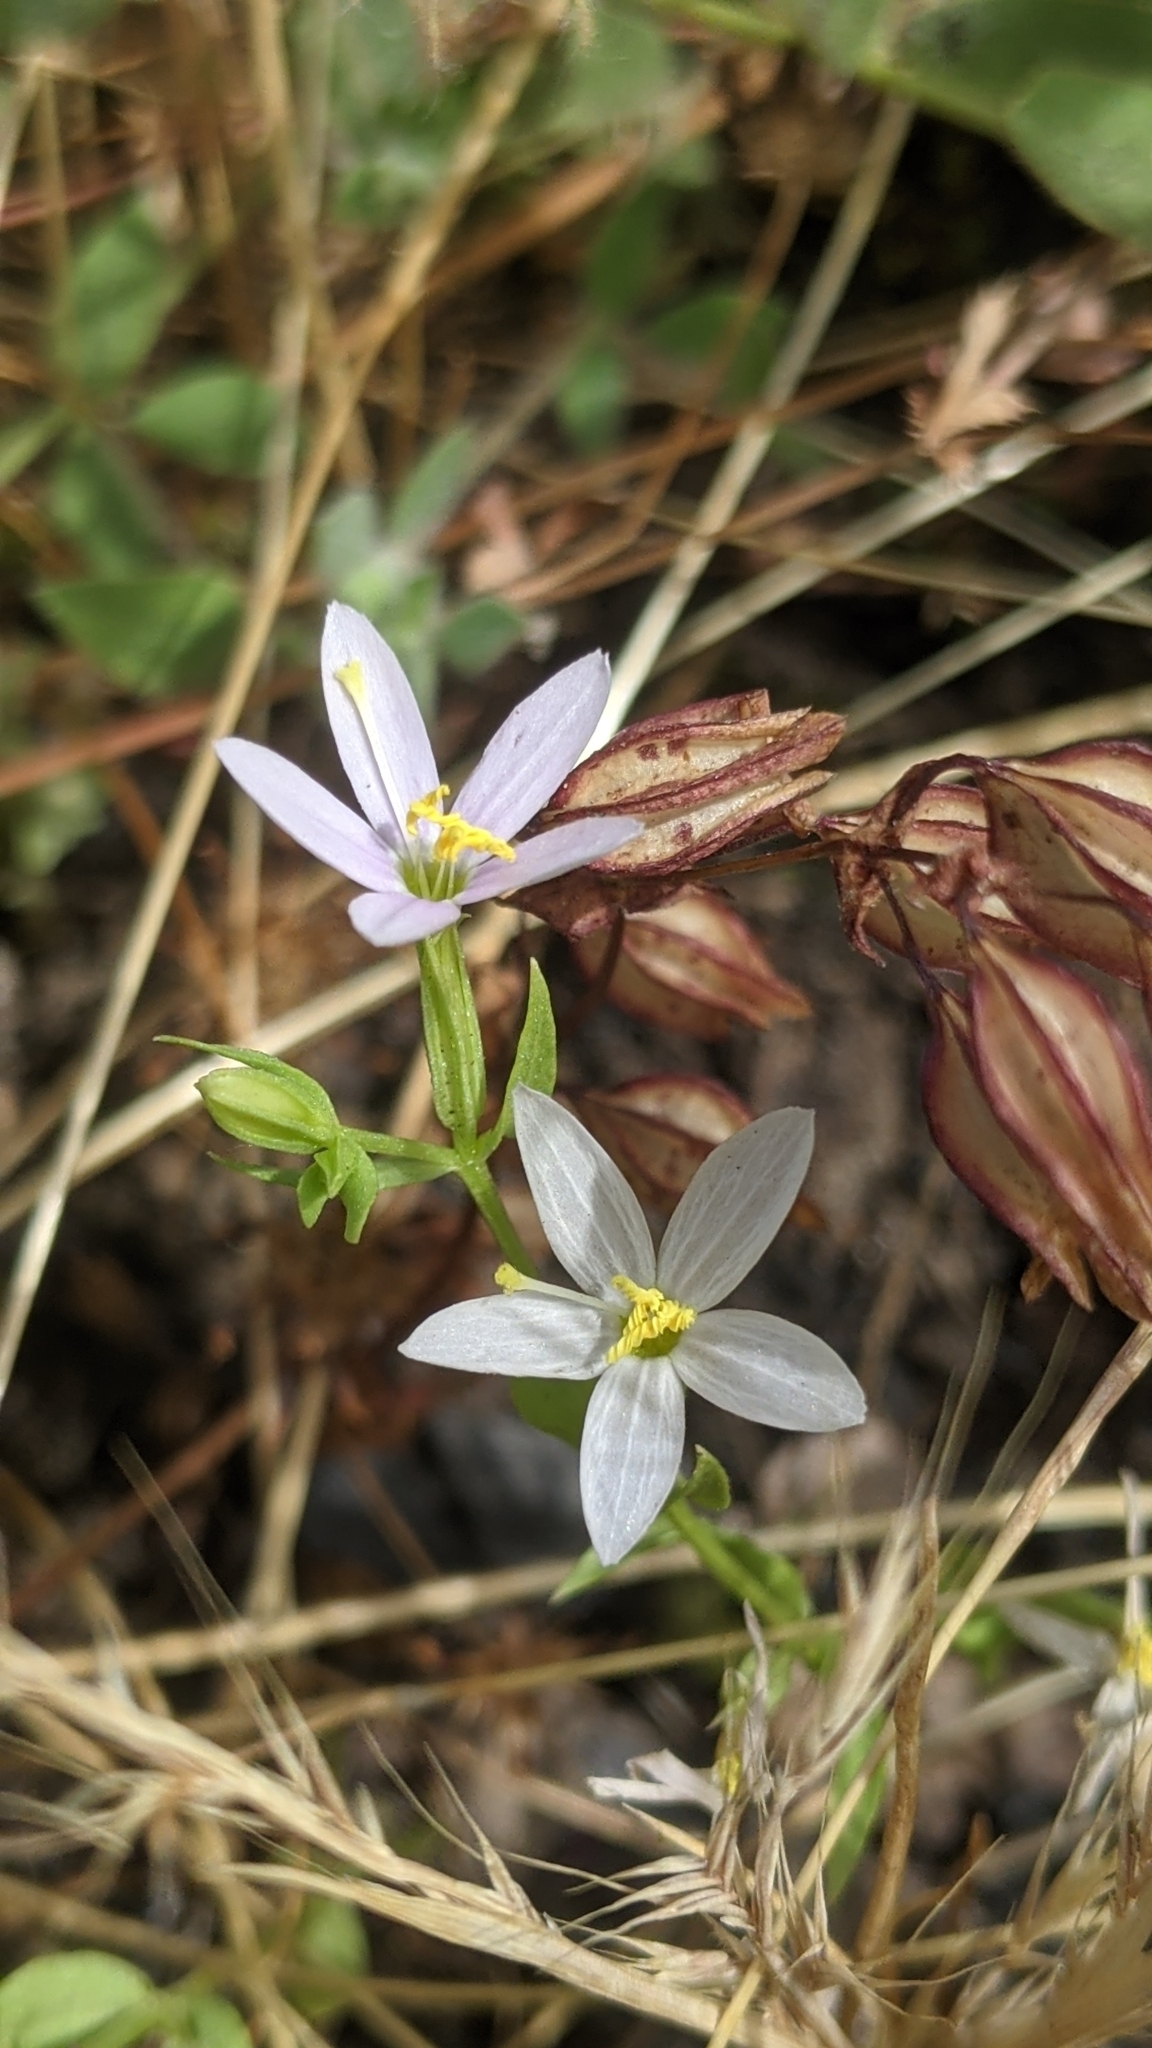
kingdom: Plantae
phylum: Tracheophyta
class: Magnoliopsida
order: Gentianales
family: Gentianaceae
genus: Zeltnera
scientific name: Zeltnera venusta
